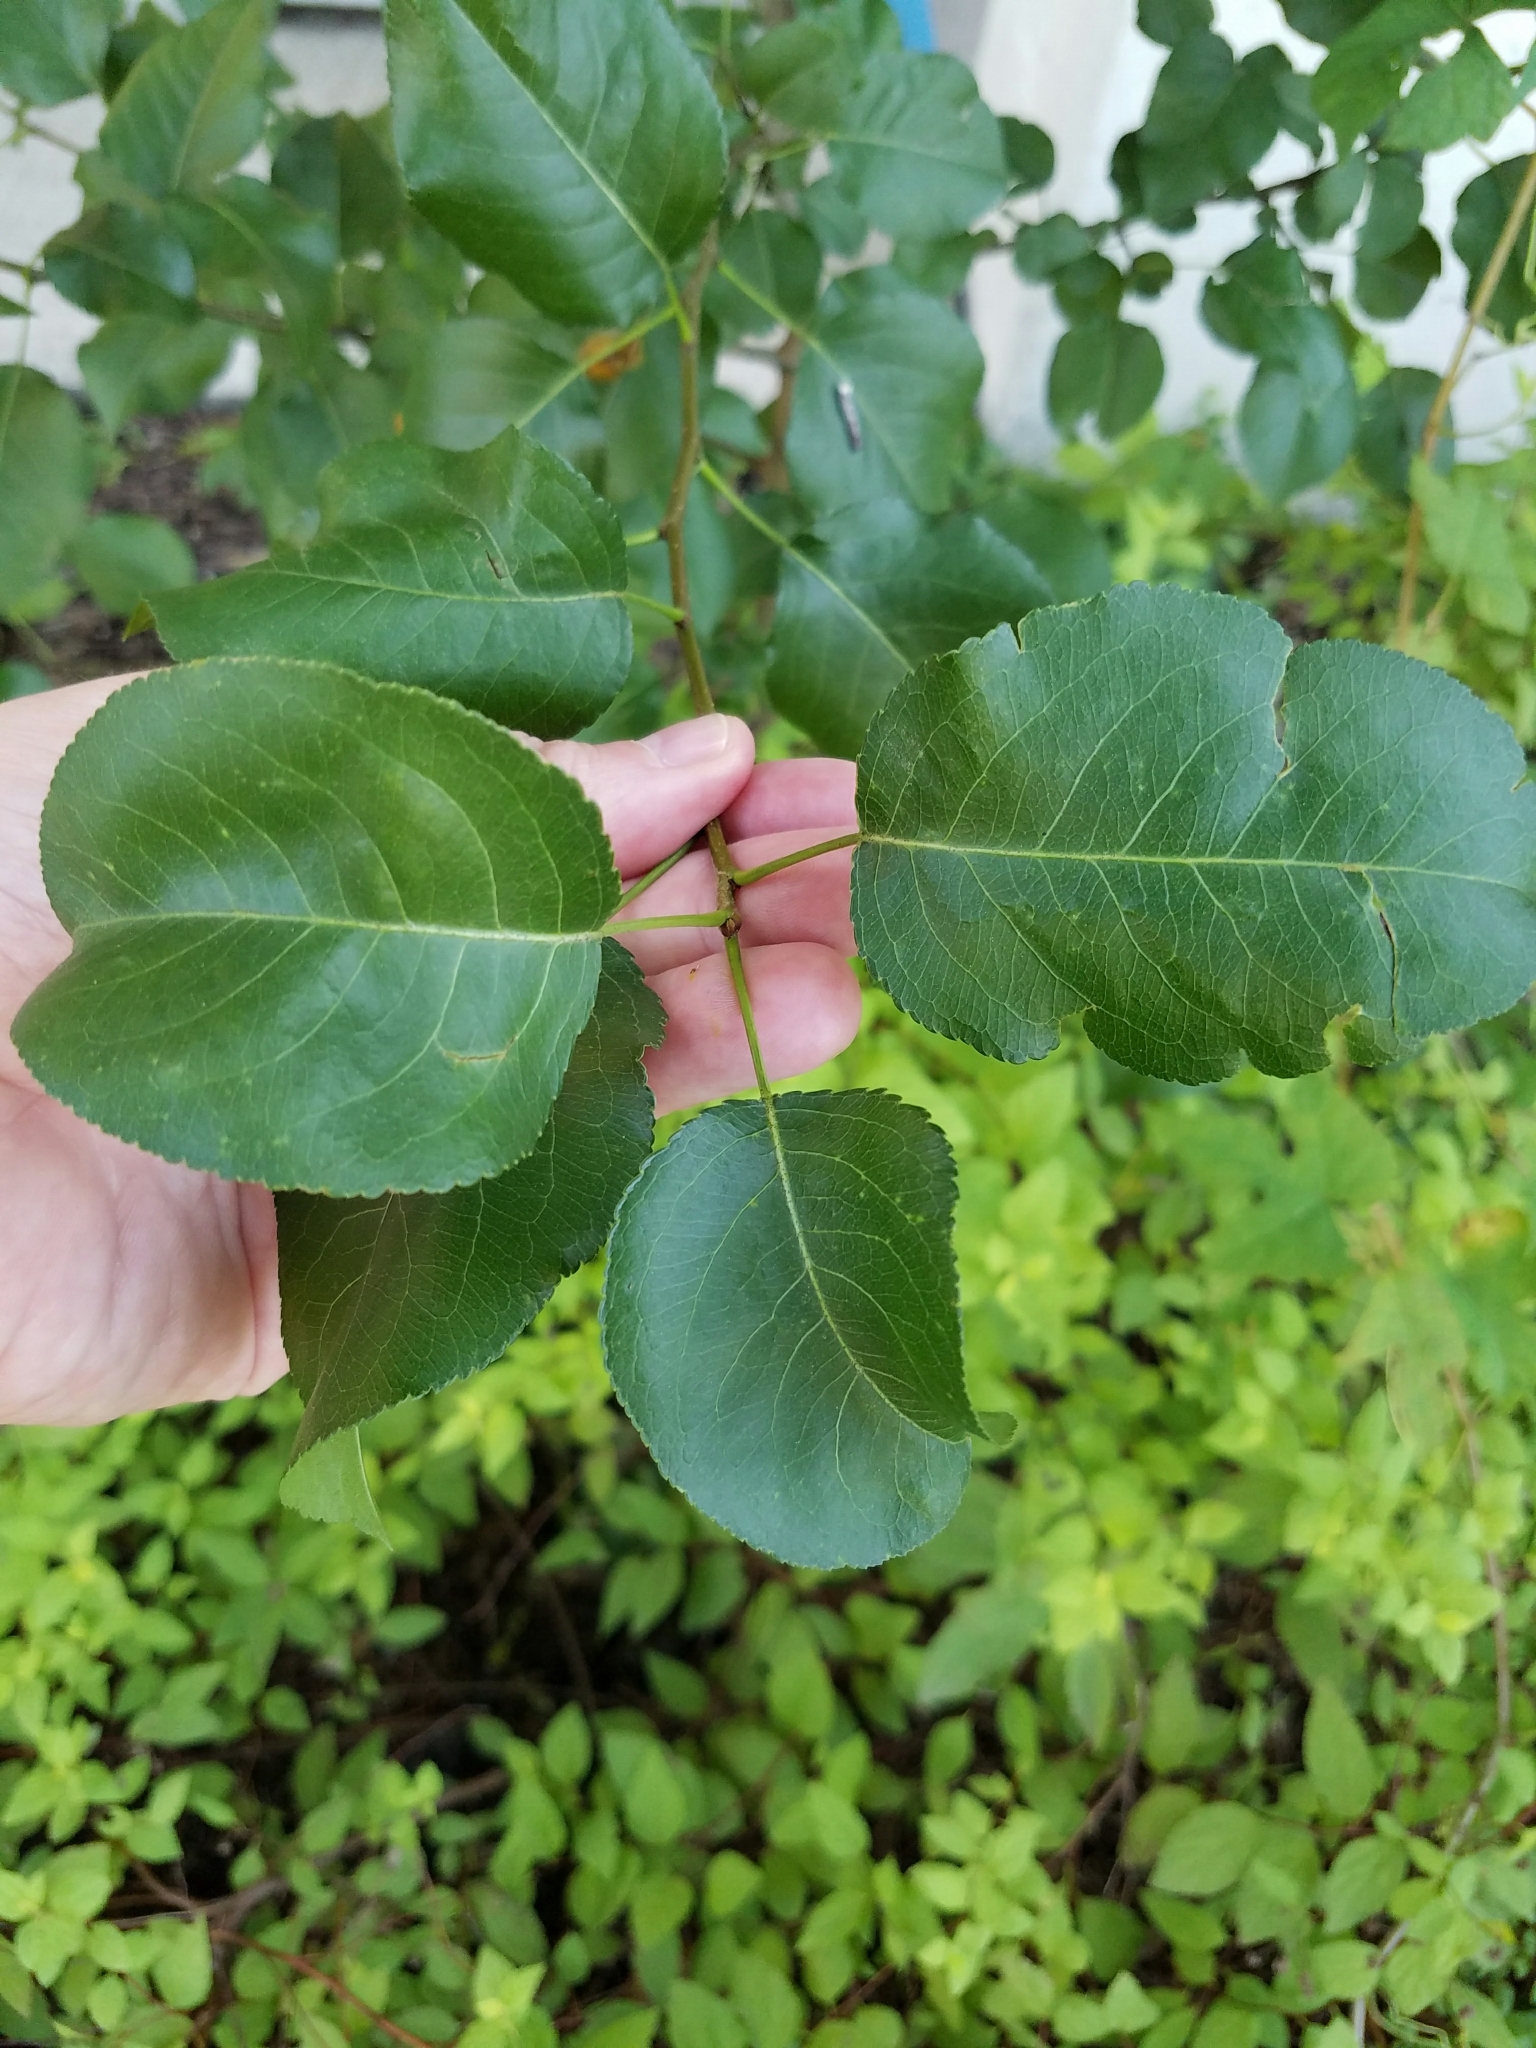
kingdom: Plantae
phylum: Tracheophyta
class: Magnoliopsida
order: Rosales
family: Rosaceae
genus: Pyrus
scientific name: Pyrus calleryana
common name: Callery pear
